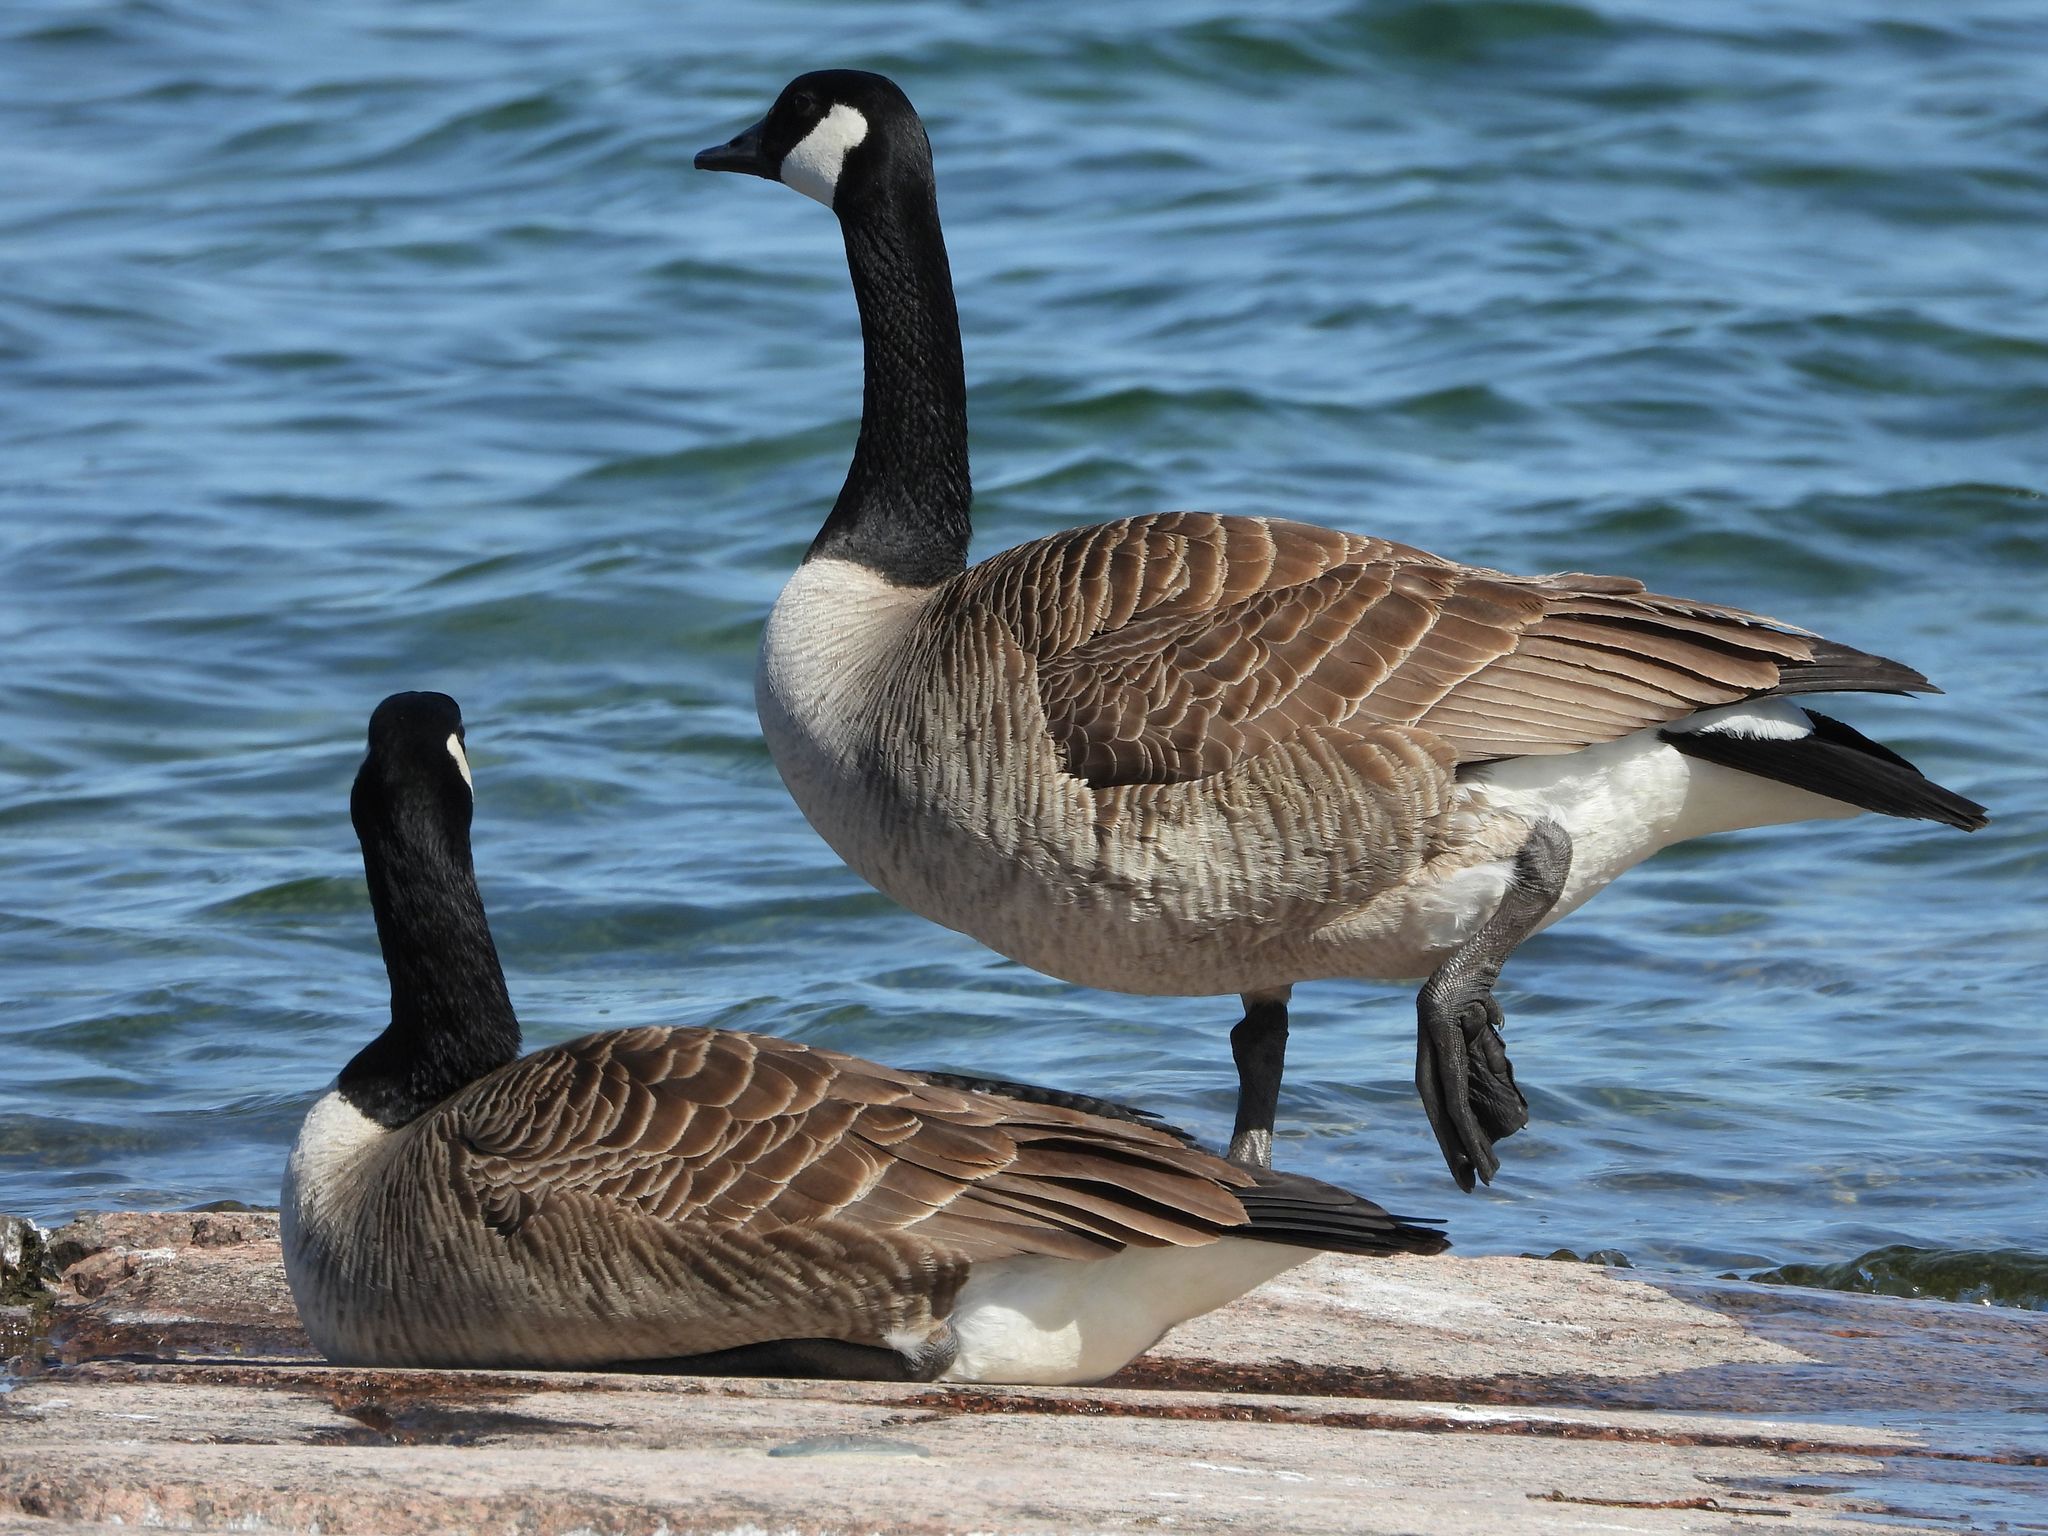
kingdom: Animalia
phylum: Chordata
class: Aves
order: Anseriformes
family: Anatidae
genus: Branta
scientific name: Branta canadensis
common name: Canada goose
